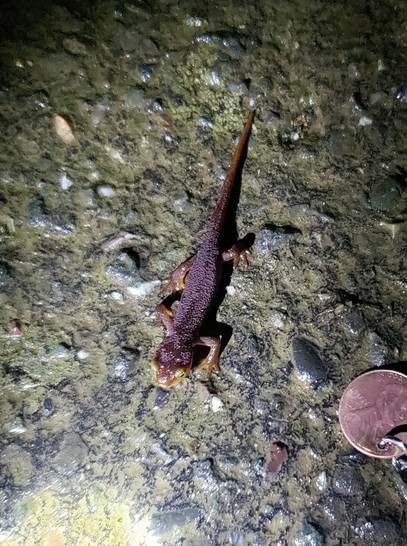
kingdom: Animalia
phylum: Chordata
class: Amphibia
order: Caudata
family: Salamandridae
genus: Taricha
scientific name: Taricha torosa
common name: California newt
